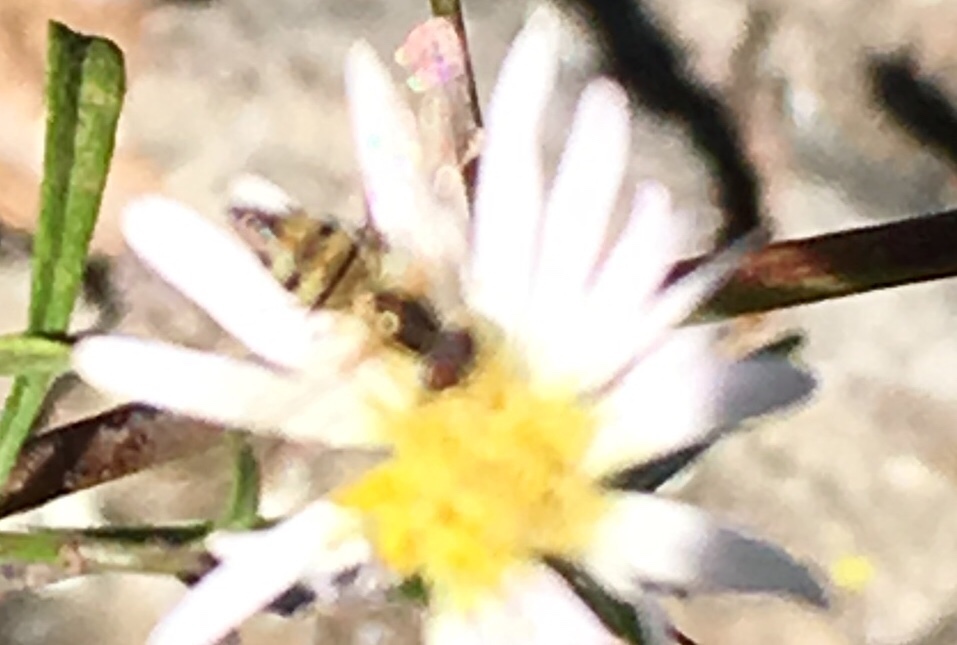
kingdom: Animalia
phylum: Arthropoda
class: Insecta
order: Diptera
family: Syrphidae
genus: Toxomerus
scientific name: Toxomerus geminatus
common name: Eastern calligrapher
